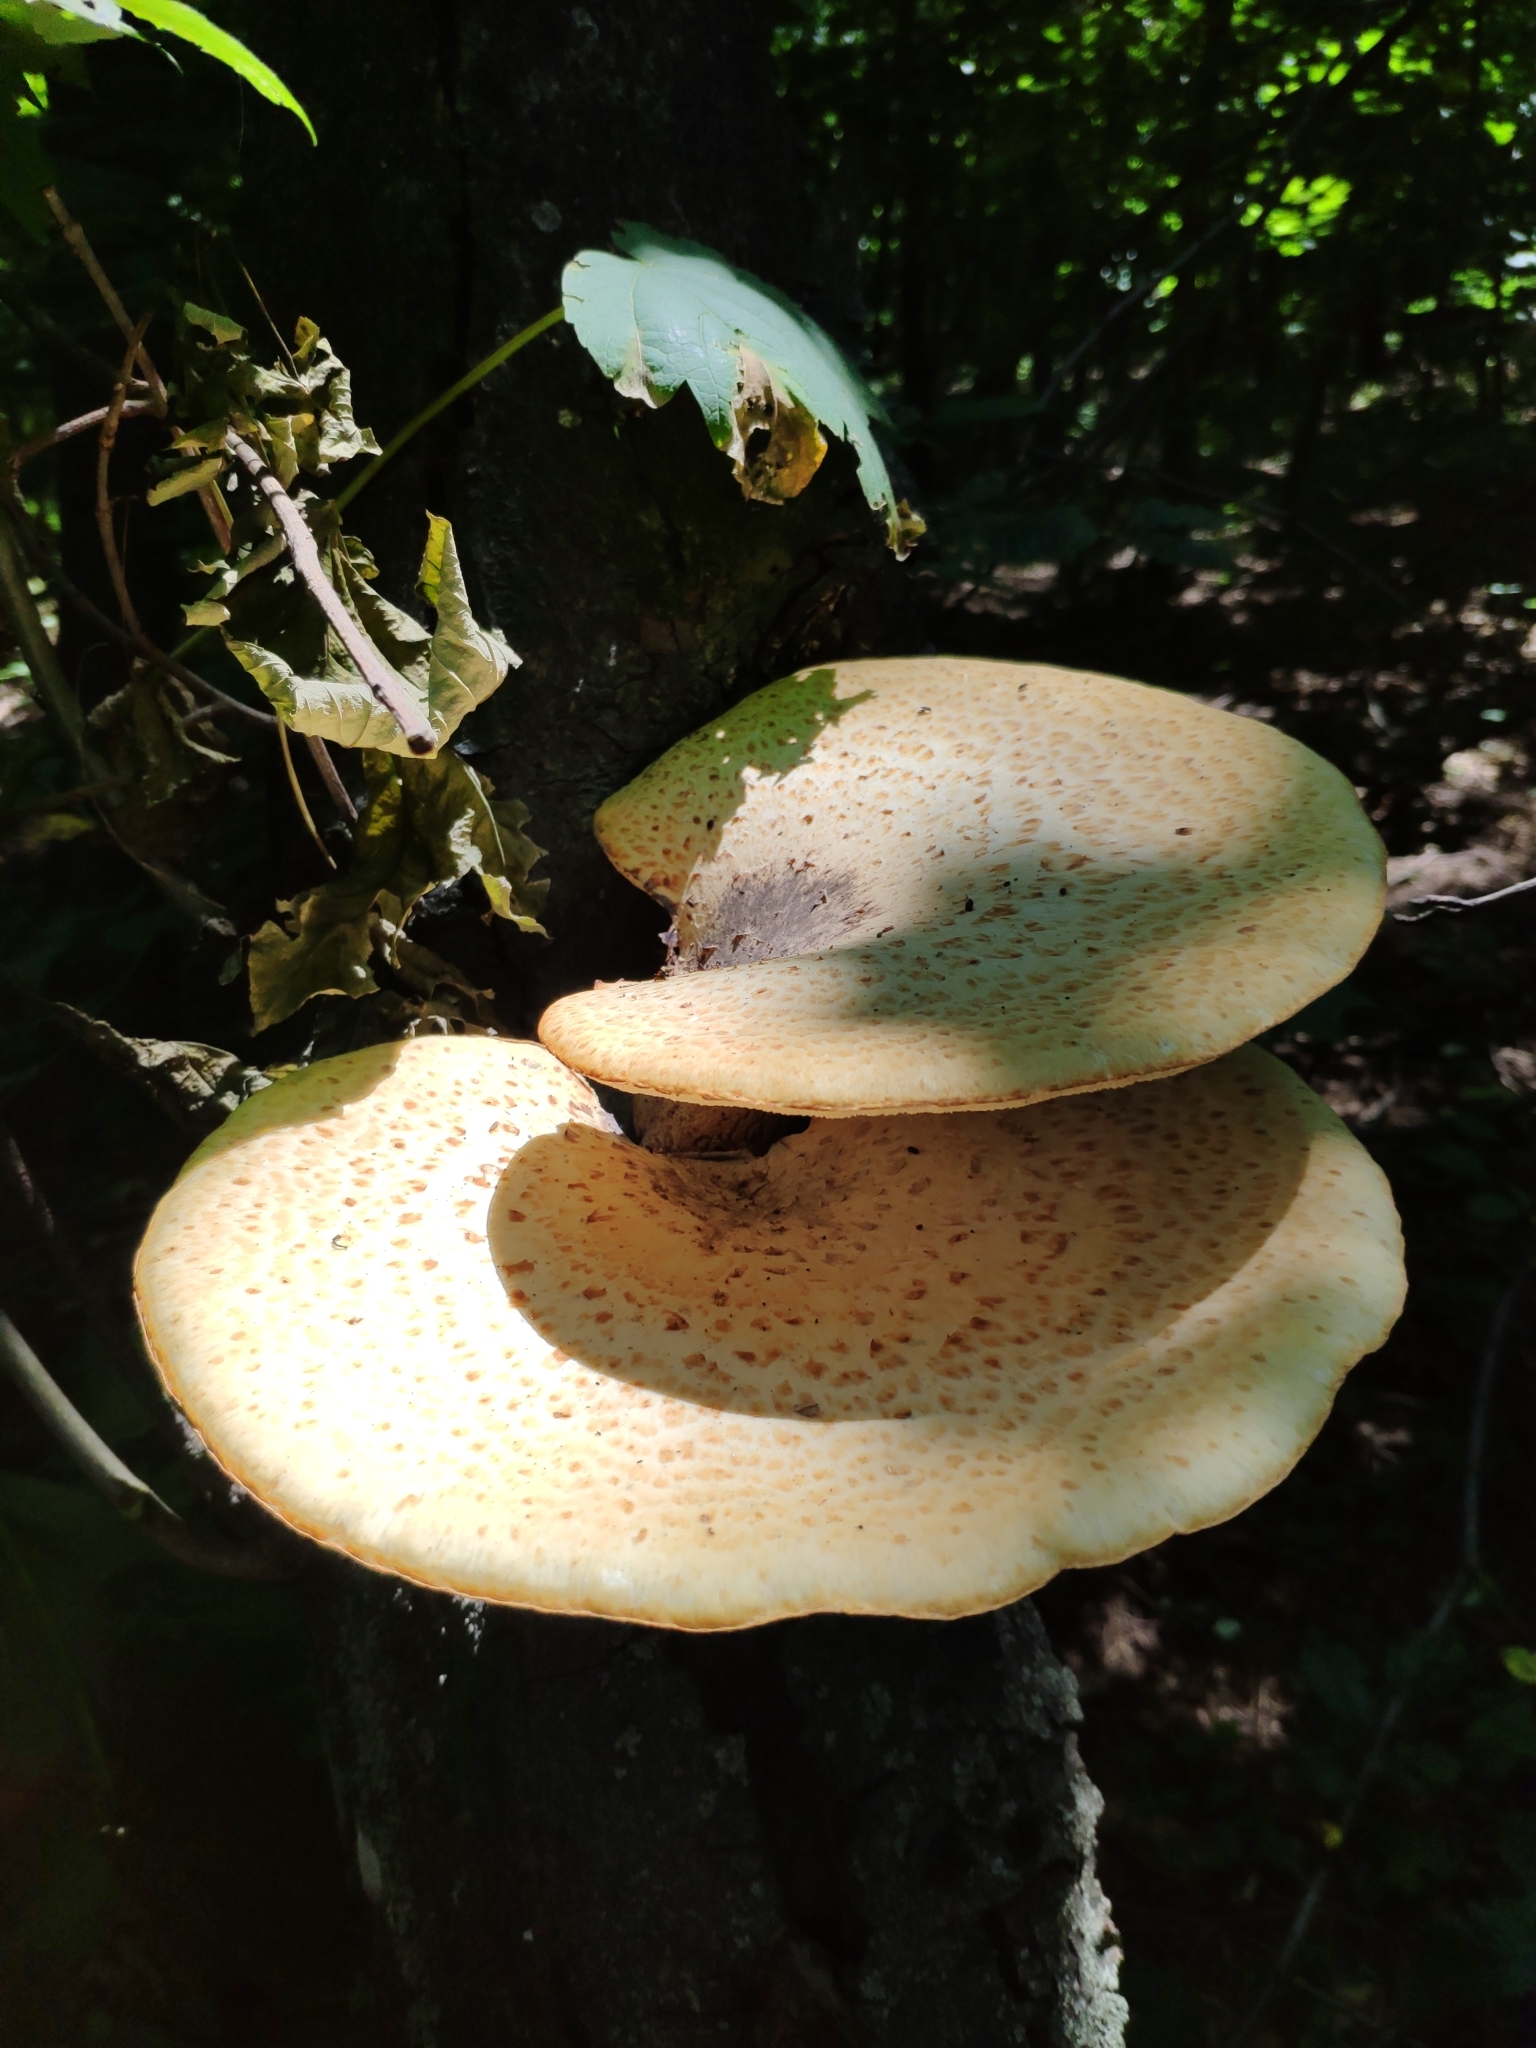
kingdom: Fungi
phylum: Basidiomycota
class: Agaricomycetes
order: Polyporales
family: Polyporaceae
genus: Cerioporus
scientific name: Cerioporus squamosus
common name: Dryad's saddle
